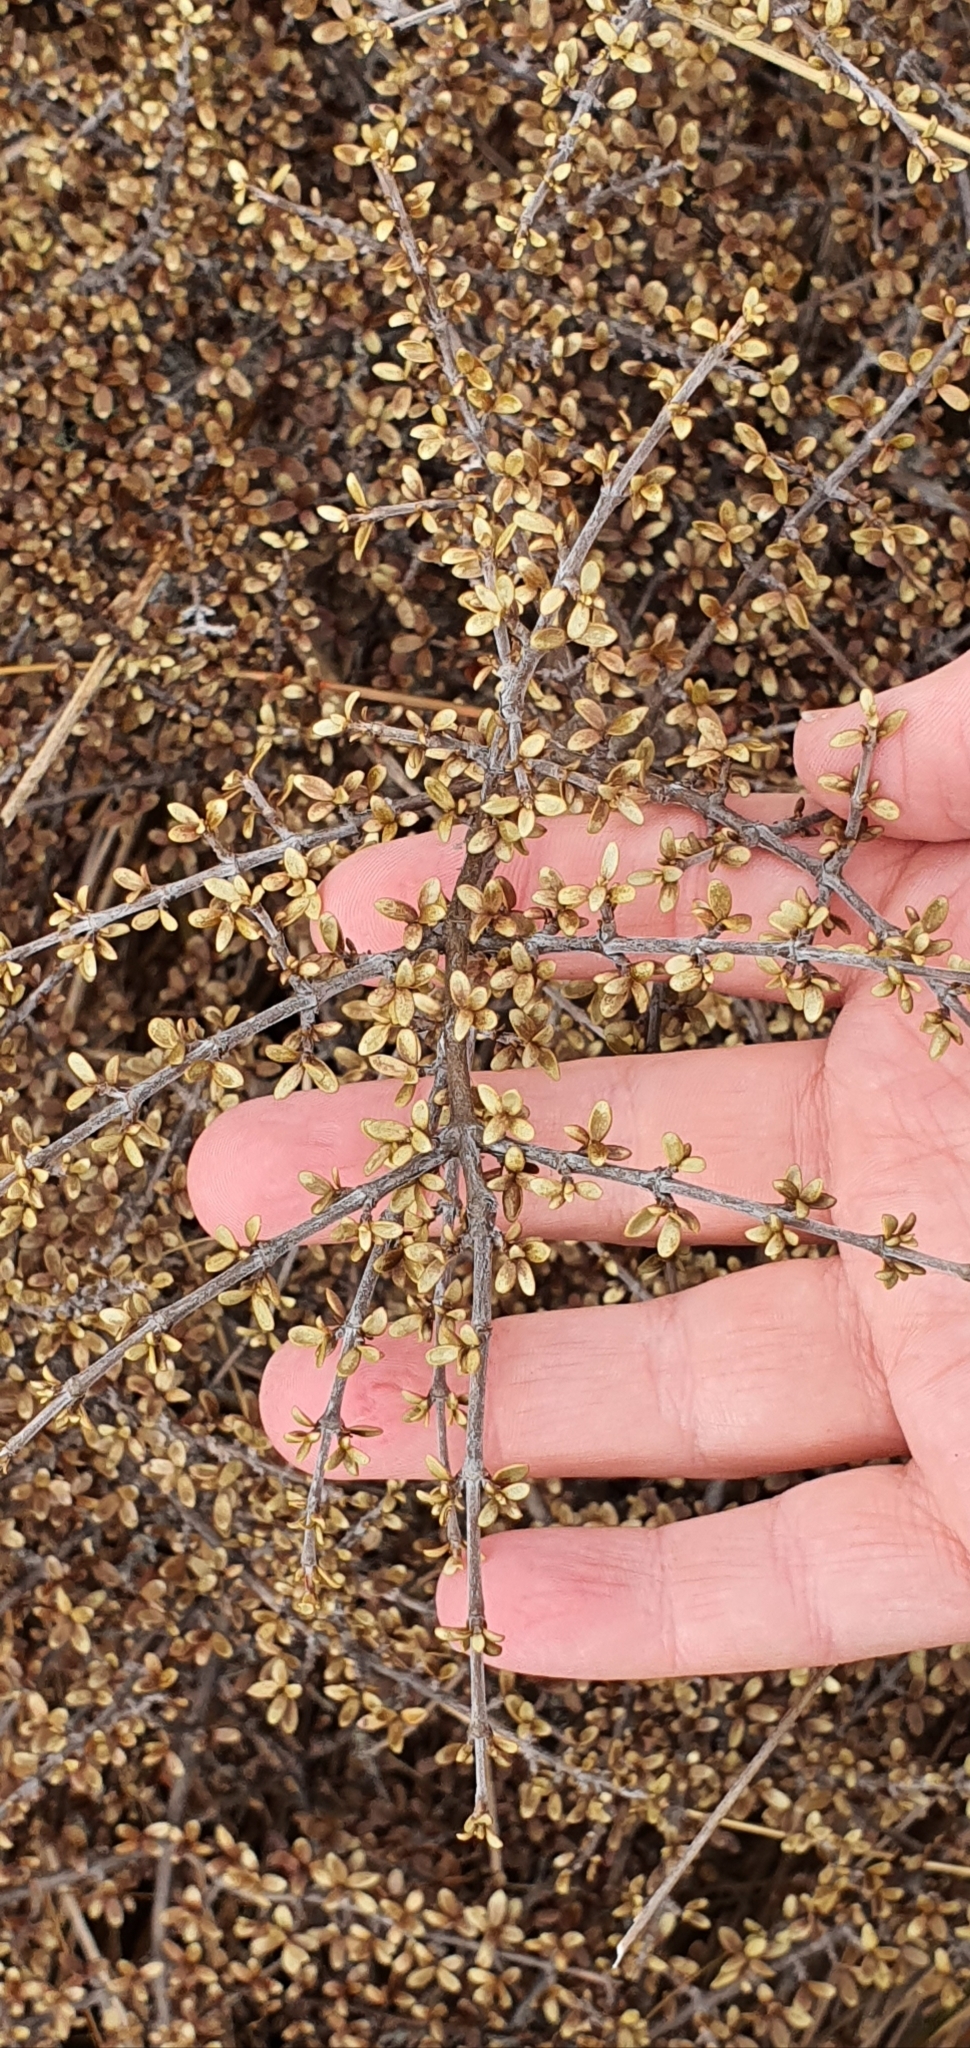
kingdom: Plantae
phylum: Tracheophyta
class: Magnoliopsida
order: Gentianales
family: Rubiaceae
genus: Coprosma
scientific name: Coprosma dumosa
